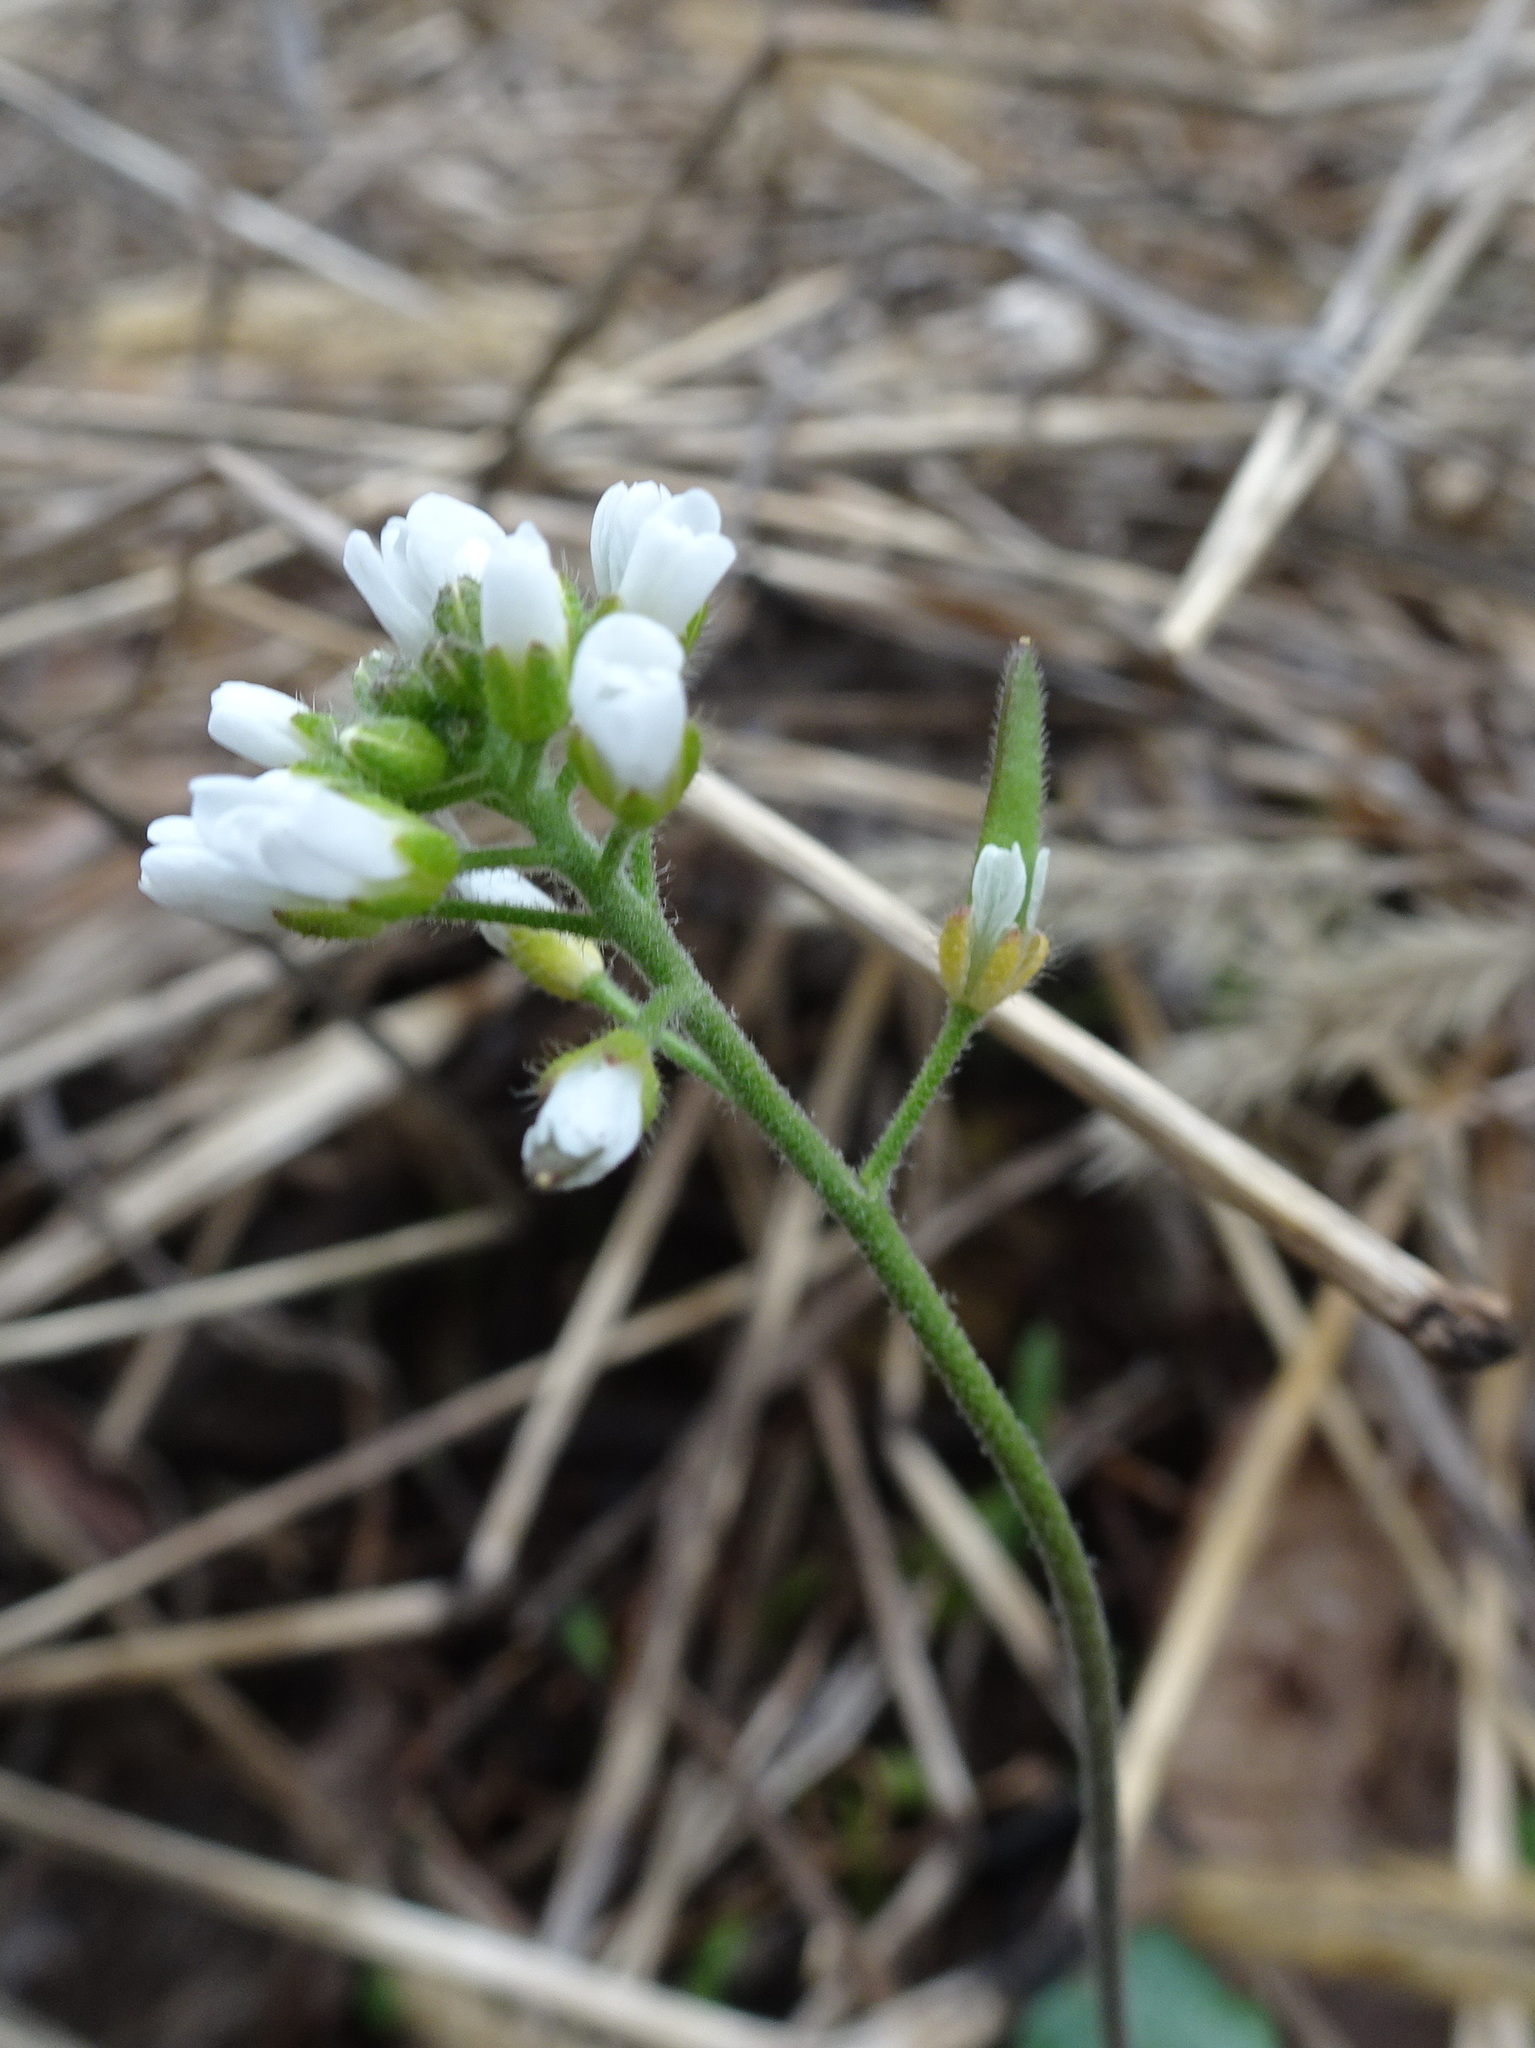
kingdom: Plantae
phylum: Tracheophyta
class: Magnoliopsida
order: Brassicales
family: Brassicaceae
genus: Tomostima
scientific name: Tomostima cuneifolia
